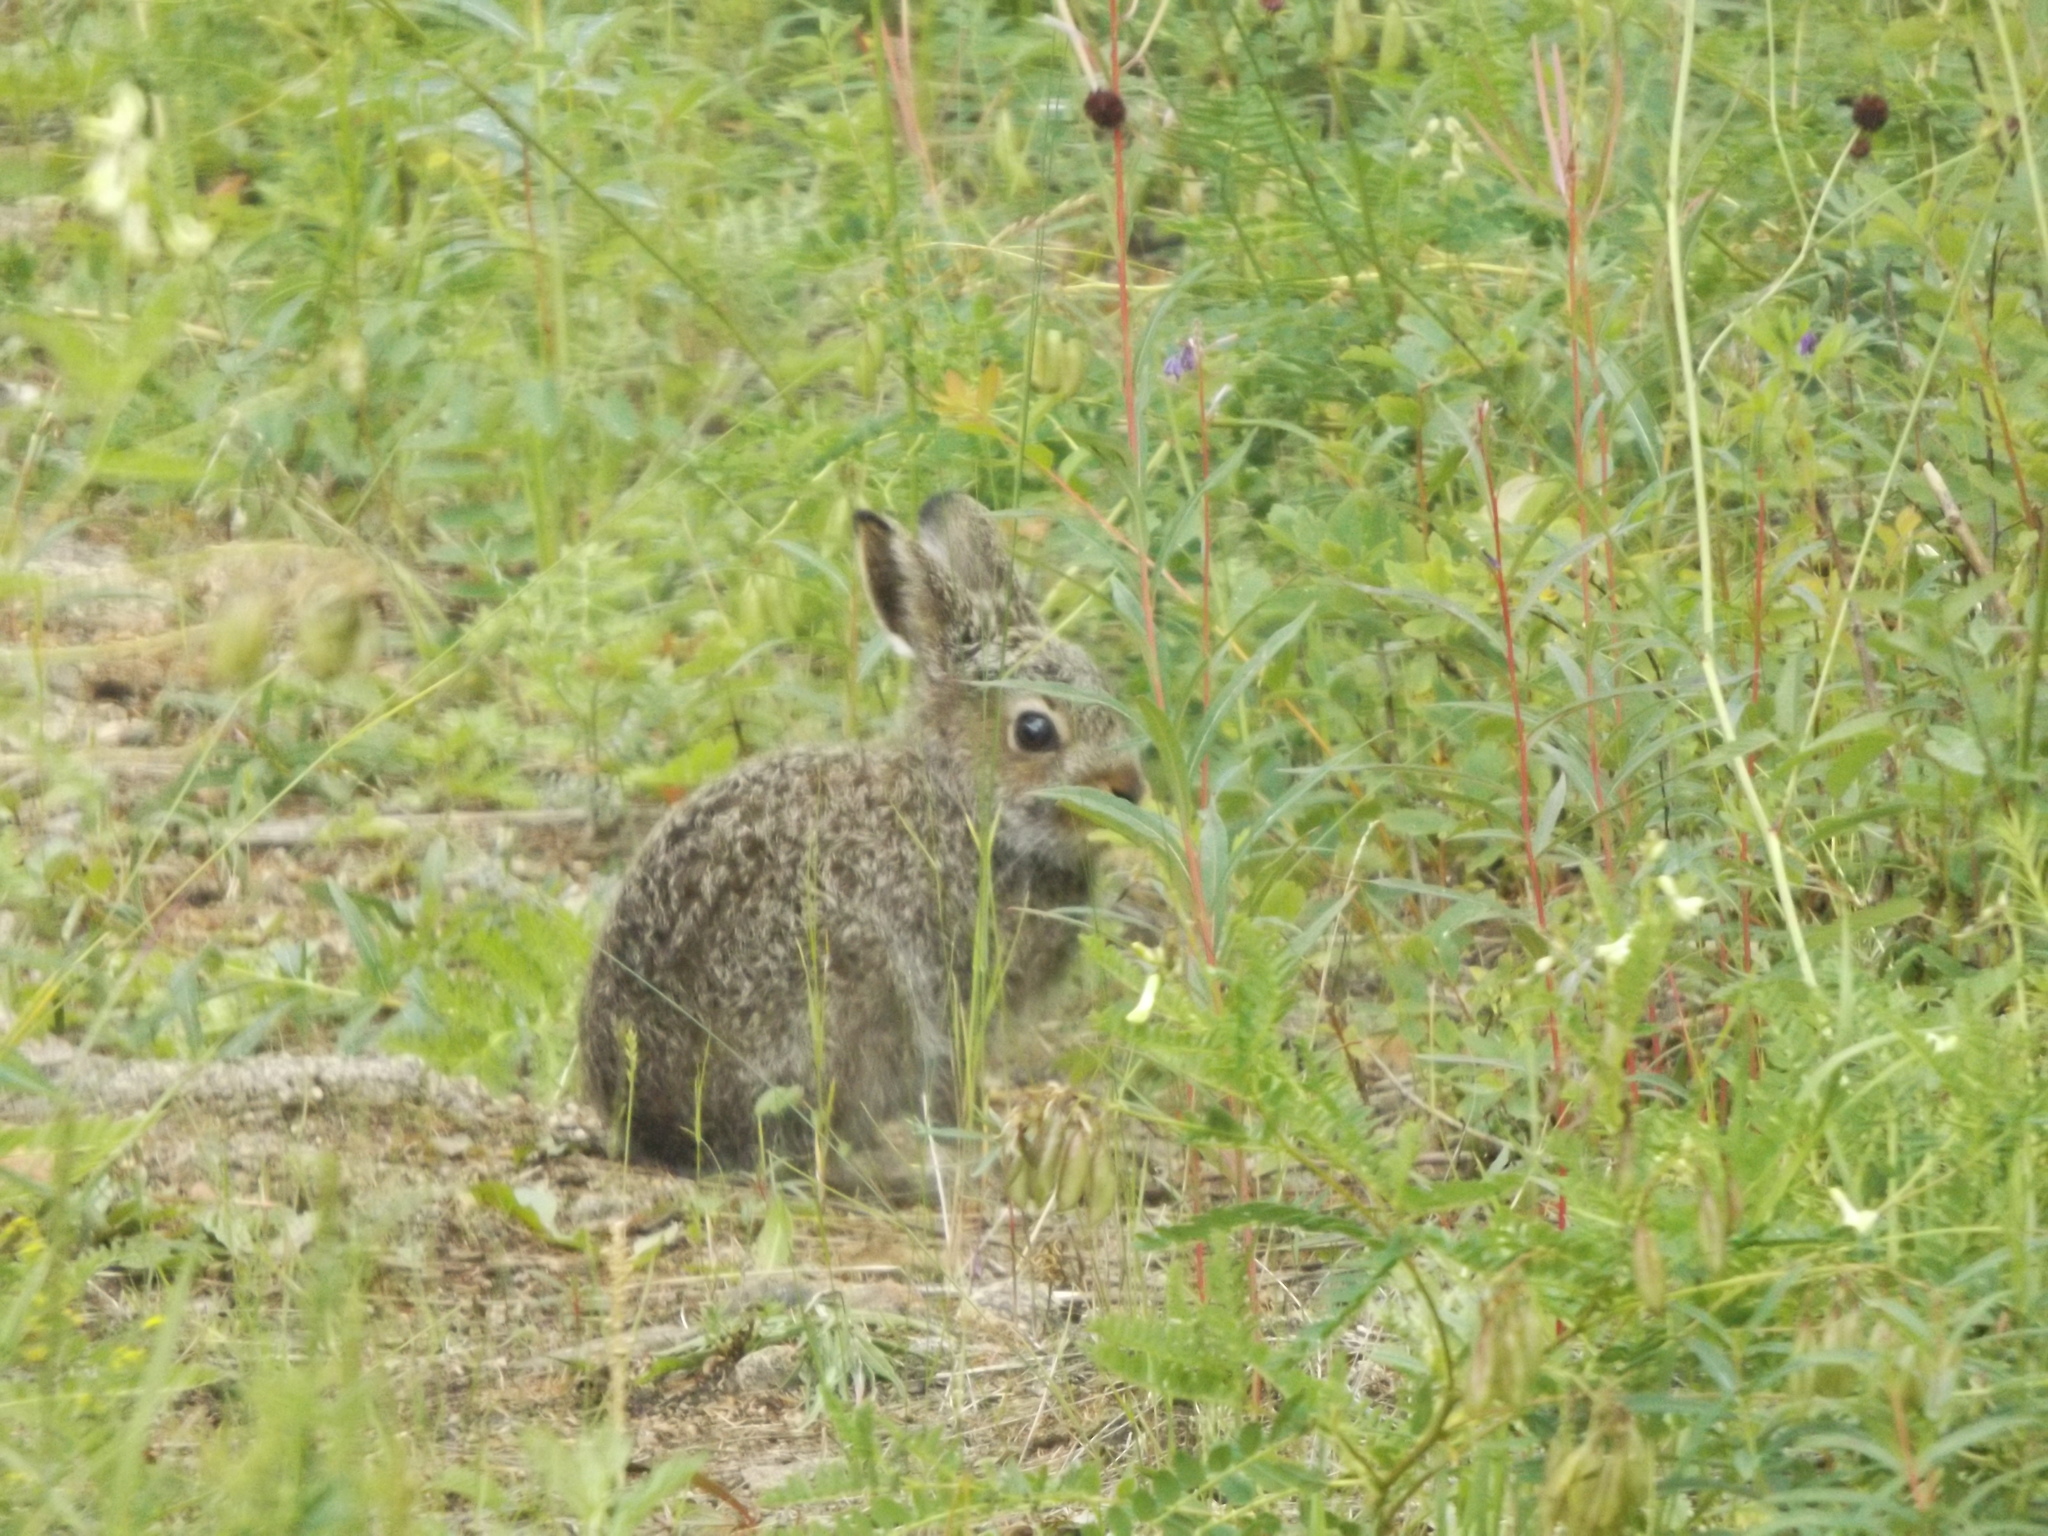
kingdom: Animalia
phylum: Chordata
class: Mammalia
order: Lagomorpha
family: Leporidae
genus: Lepus
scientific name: Lepus timidus
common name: Mountain hare
